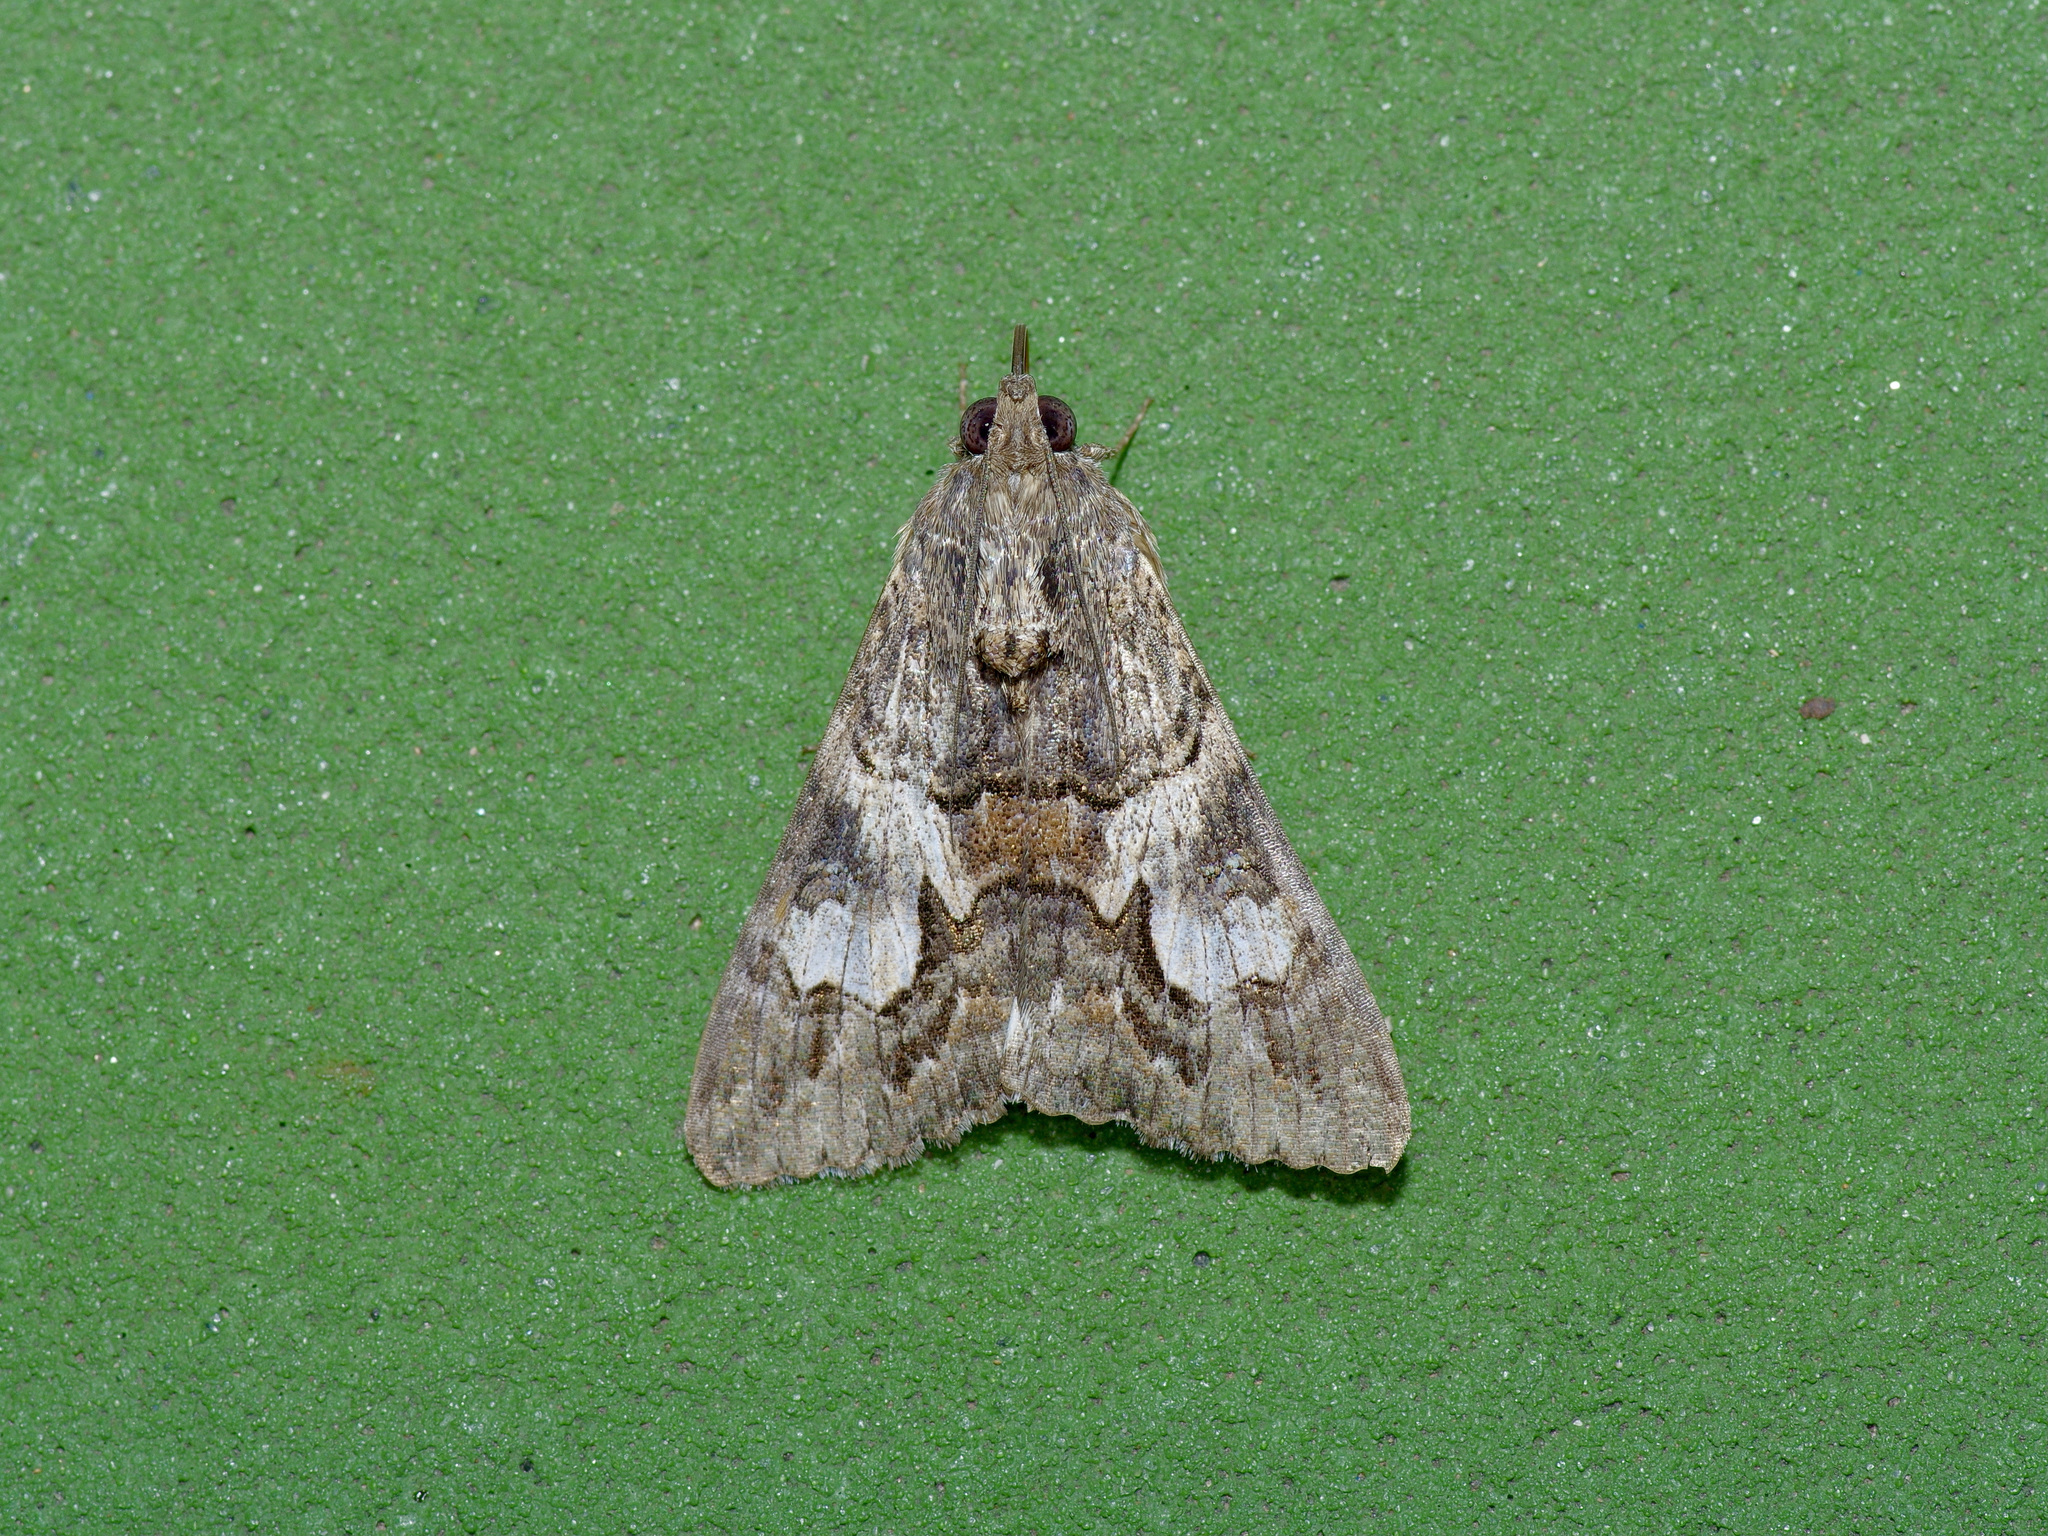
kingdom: Animalia
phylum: Arthropoda
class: Insecta
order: Lepidoptera
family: Erebidae
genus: Melipotis
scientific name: Melipotis jucunda
